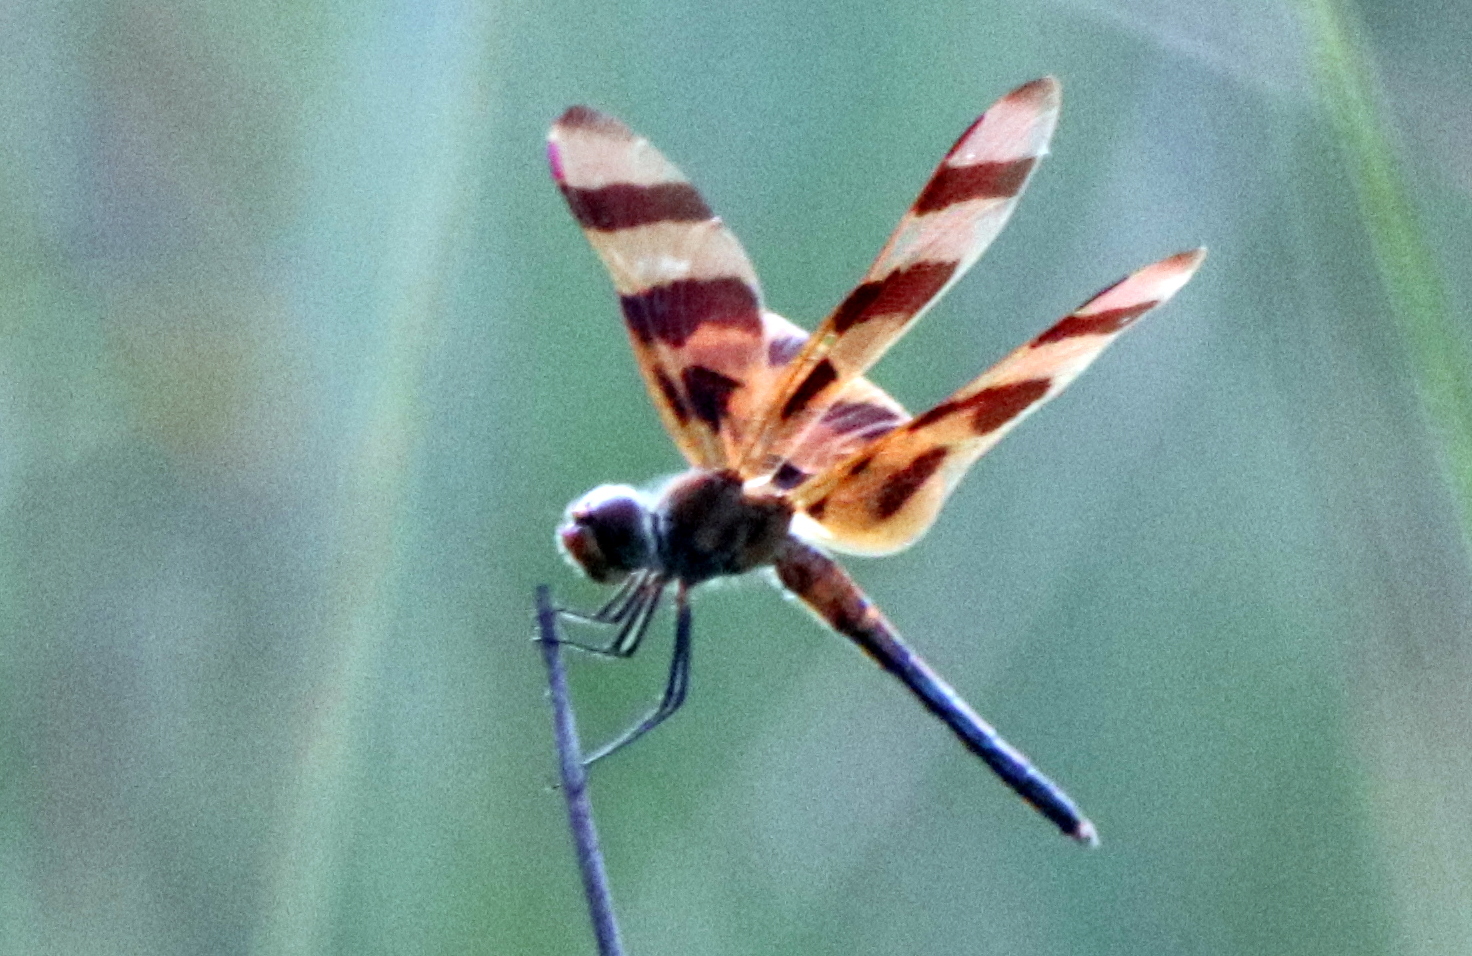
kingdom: Animalia
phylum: Arthropoda
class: Insecta
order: Odonata
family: Libellulidae
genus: Celithemis
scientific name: Celithemis eponina
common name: Halloween pennant
